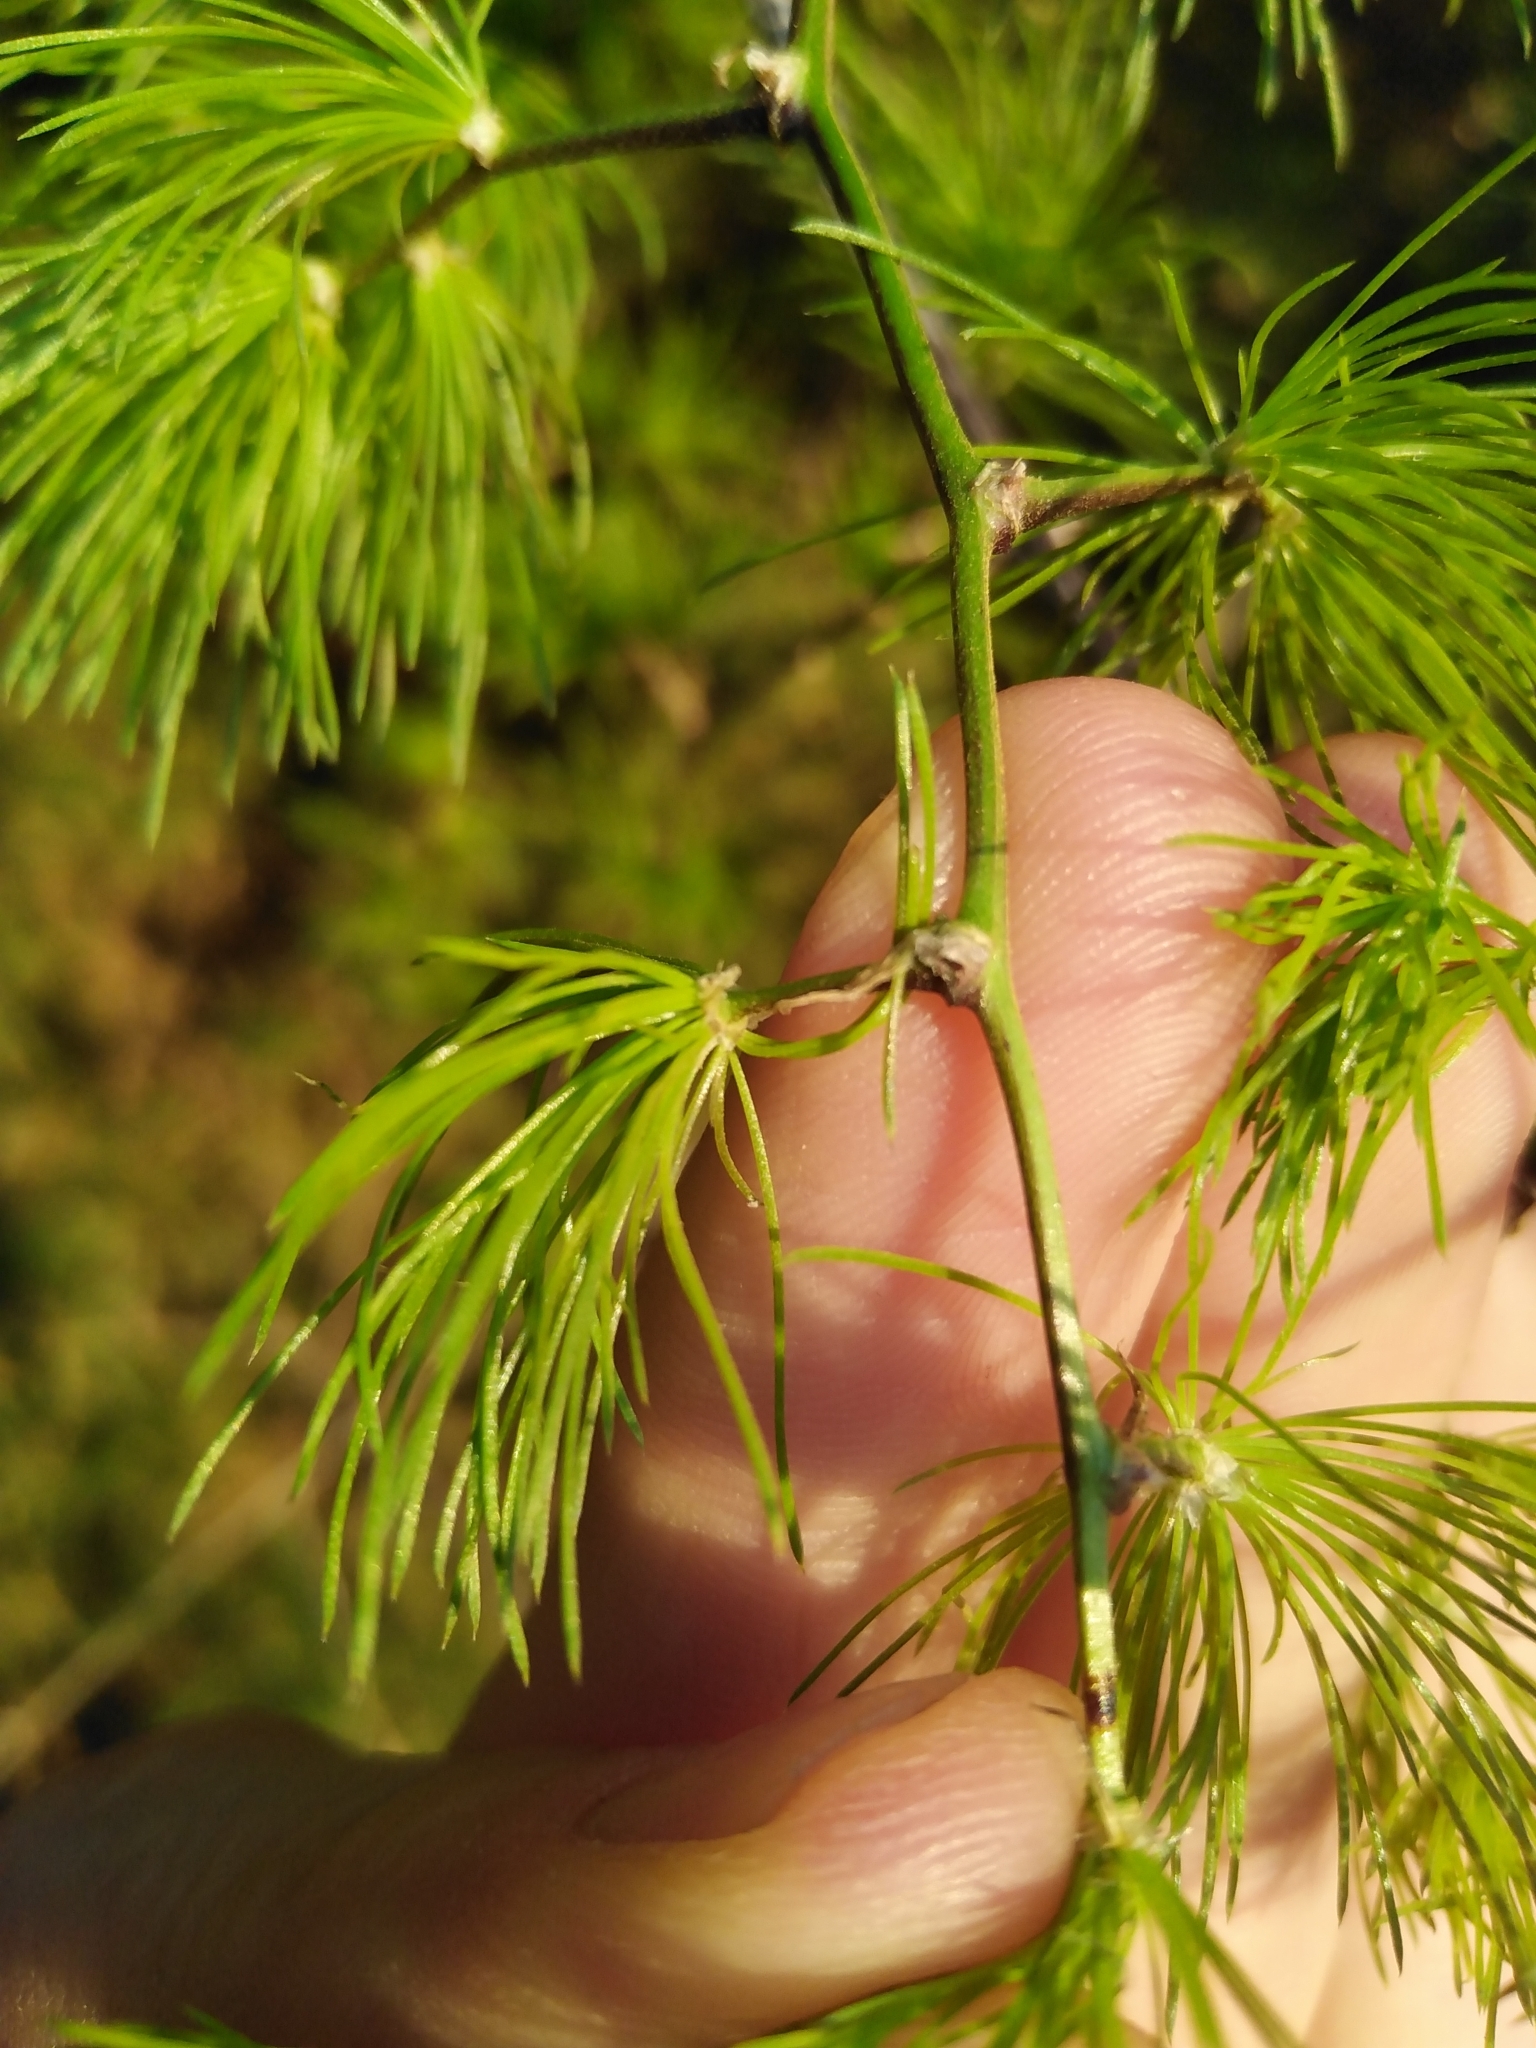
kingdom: Plantae
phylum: Tracheophyta
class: Liliopsida
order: Asparagales
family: Asparagaceae
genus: Asparagus
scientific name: Asparagus retrofractus
